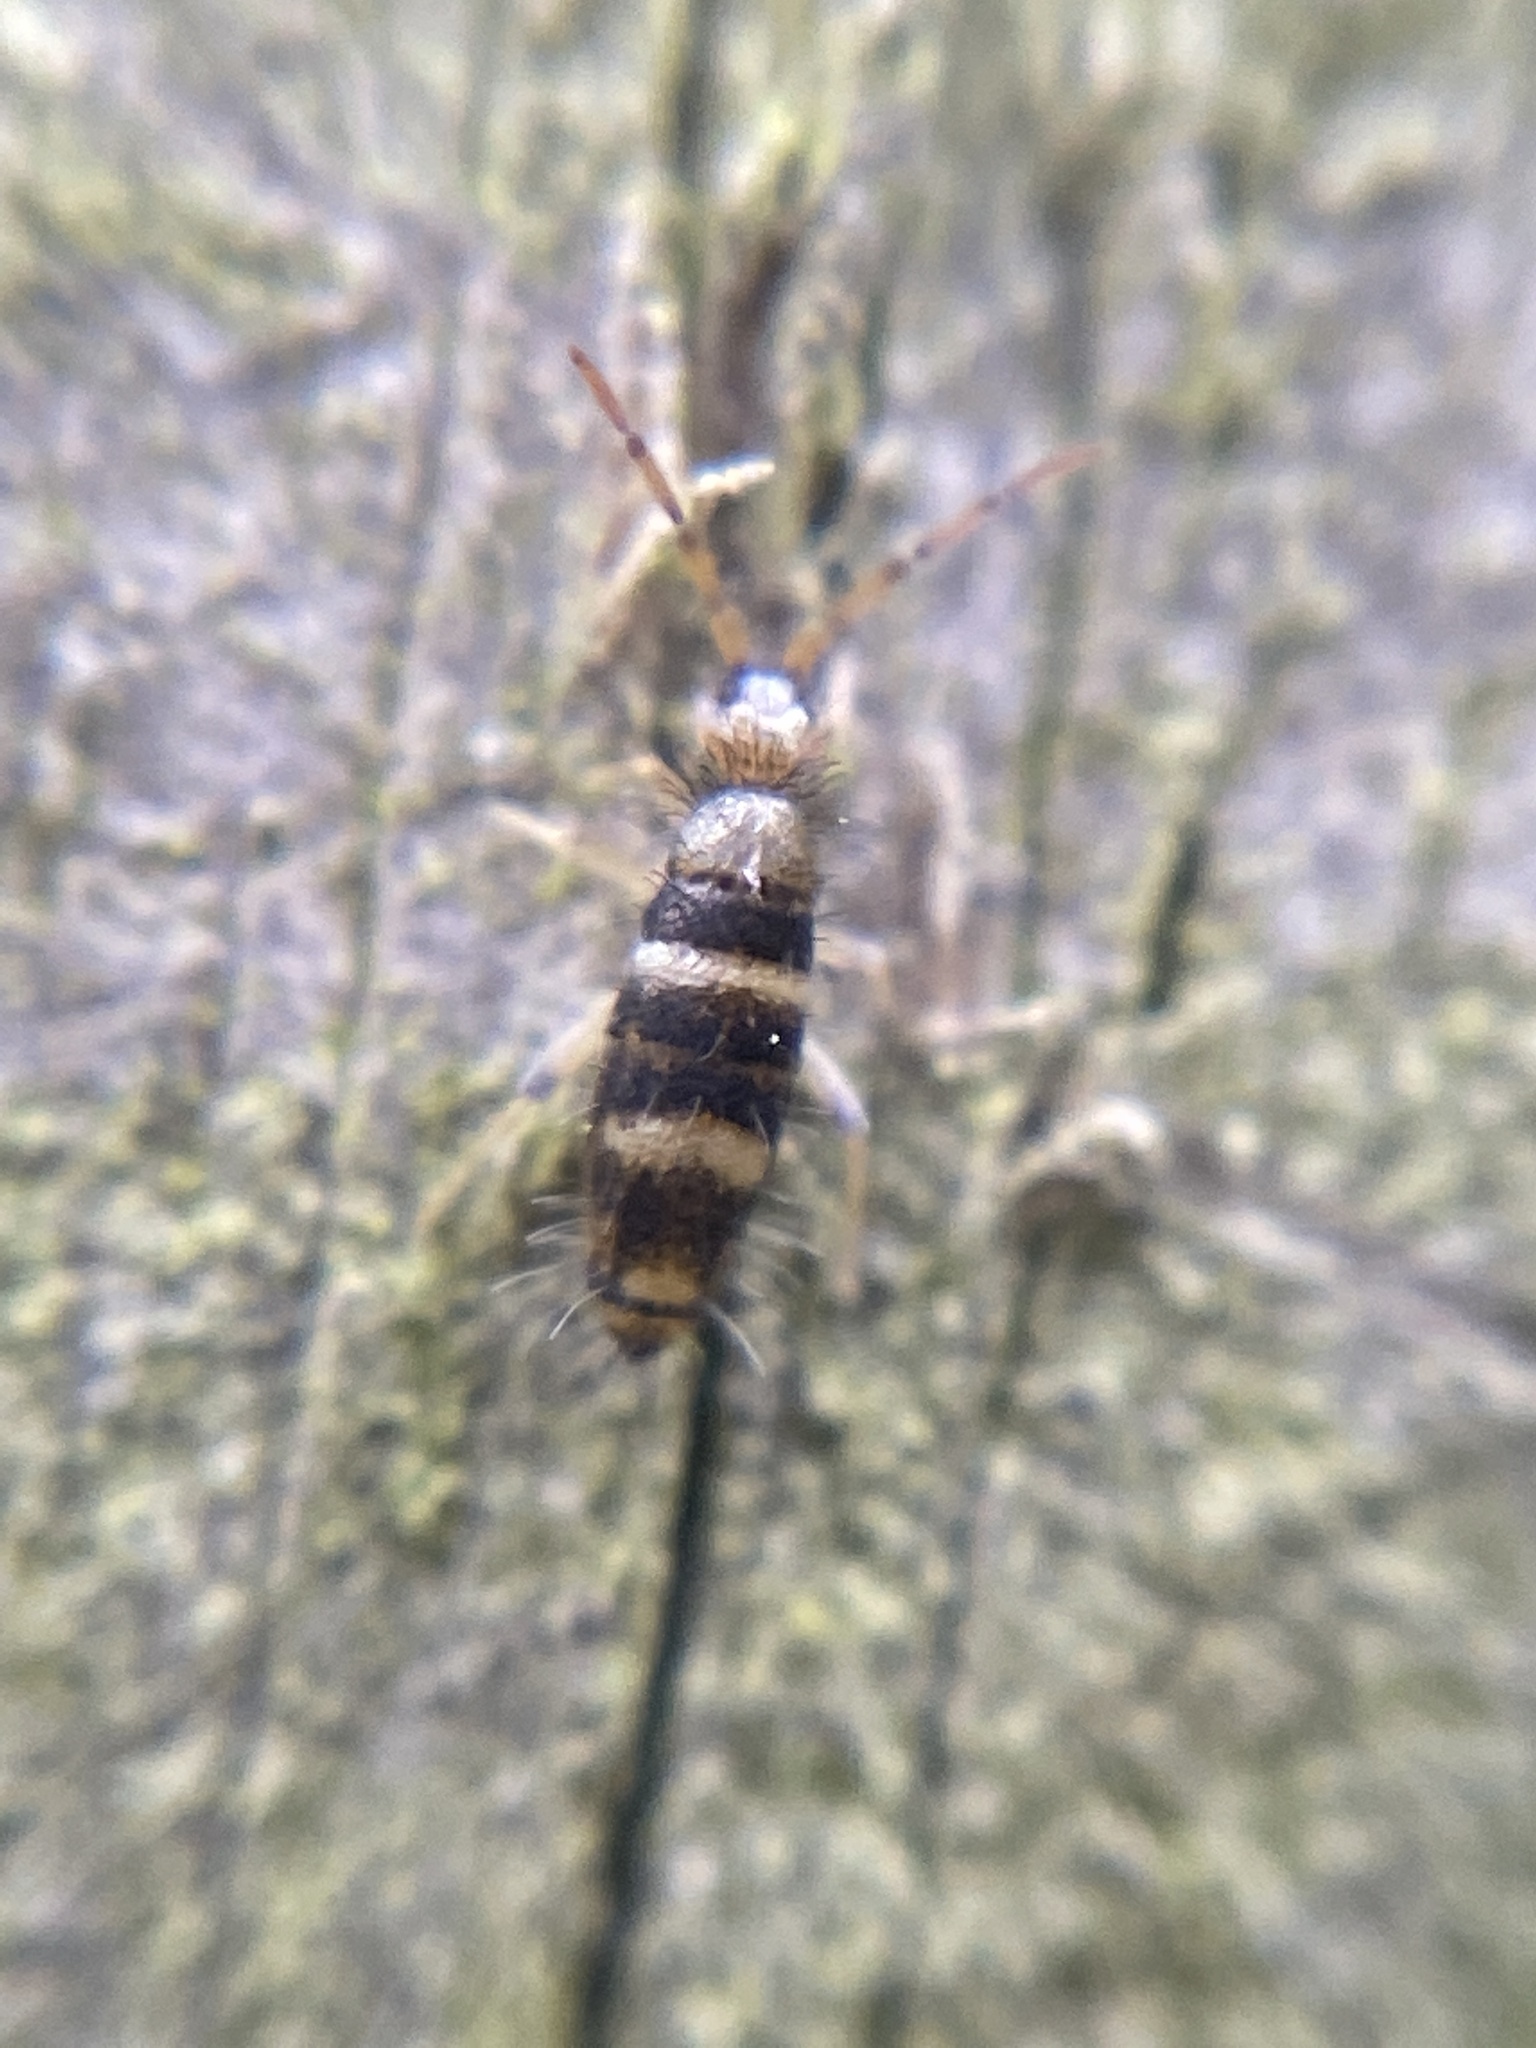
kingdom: Animalia
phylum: Arthropoda
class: Collembola
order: Entomobryomorpha
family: Entomobryidae
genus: Willowsia
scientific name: Willowsia platani
